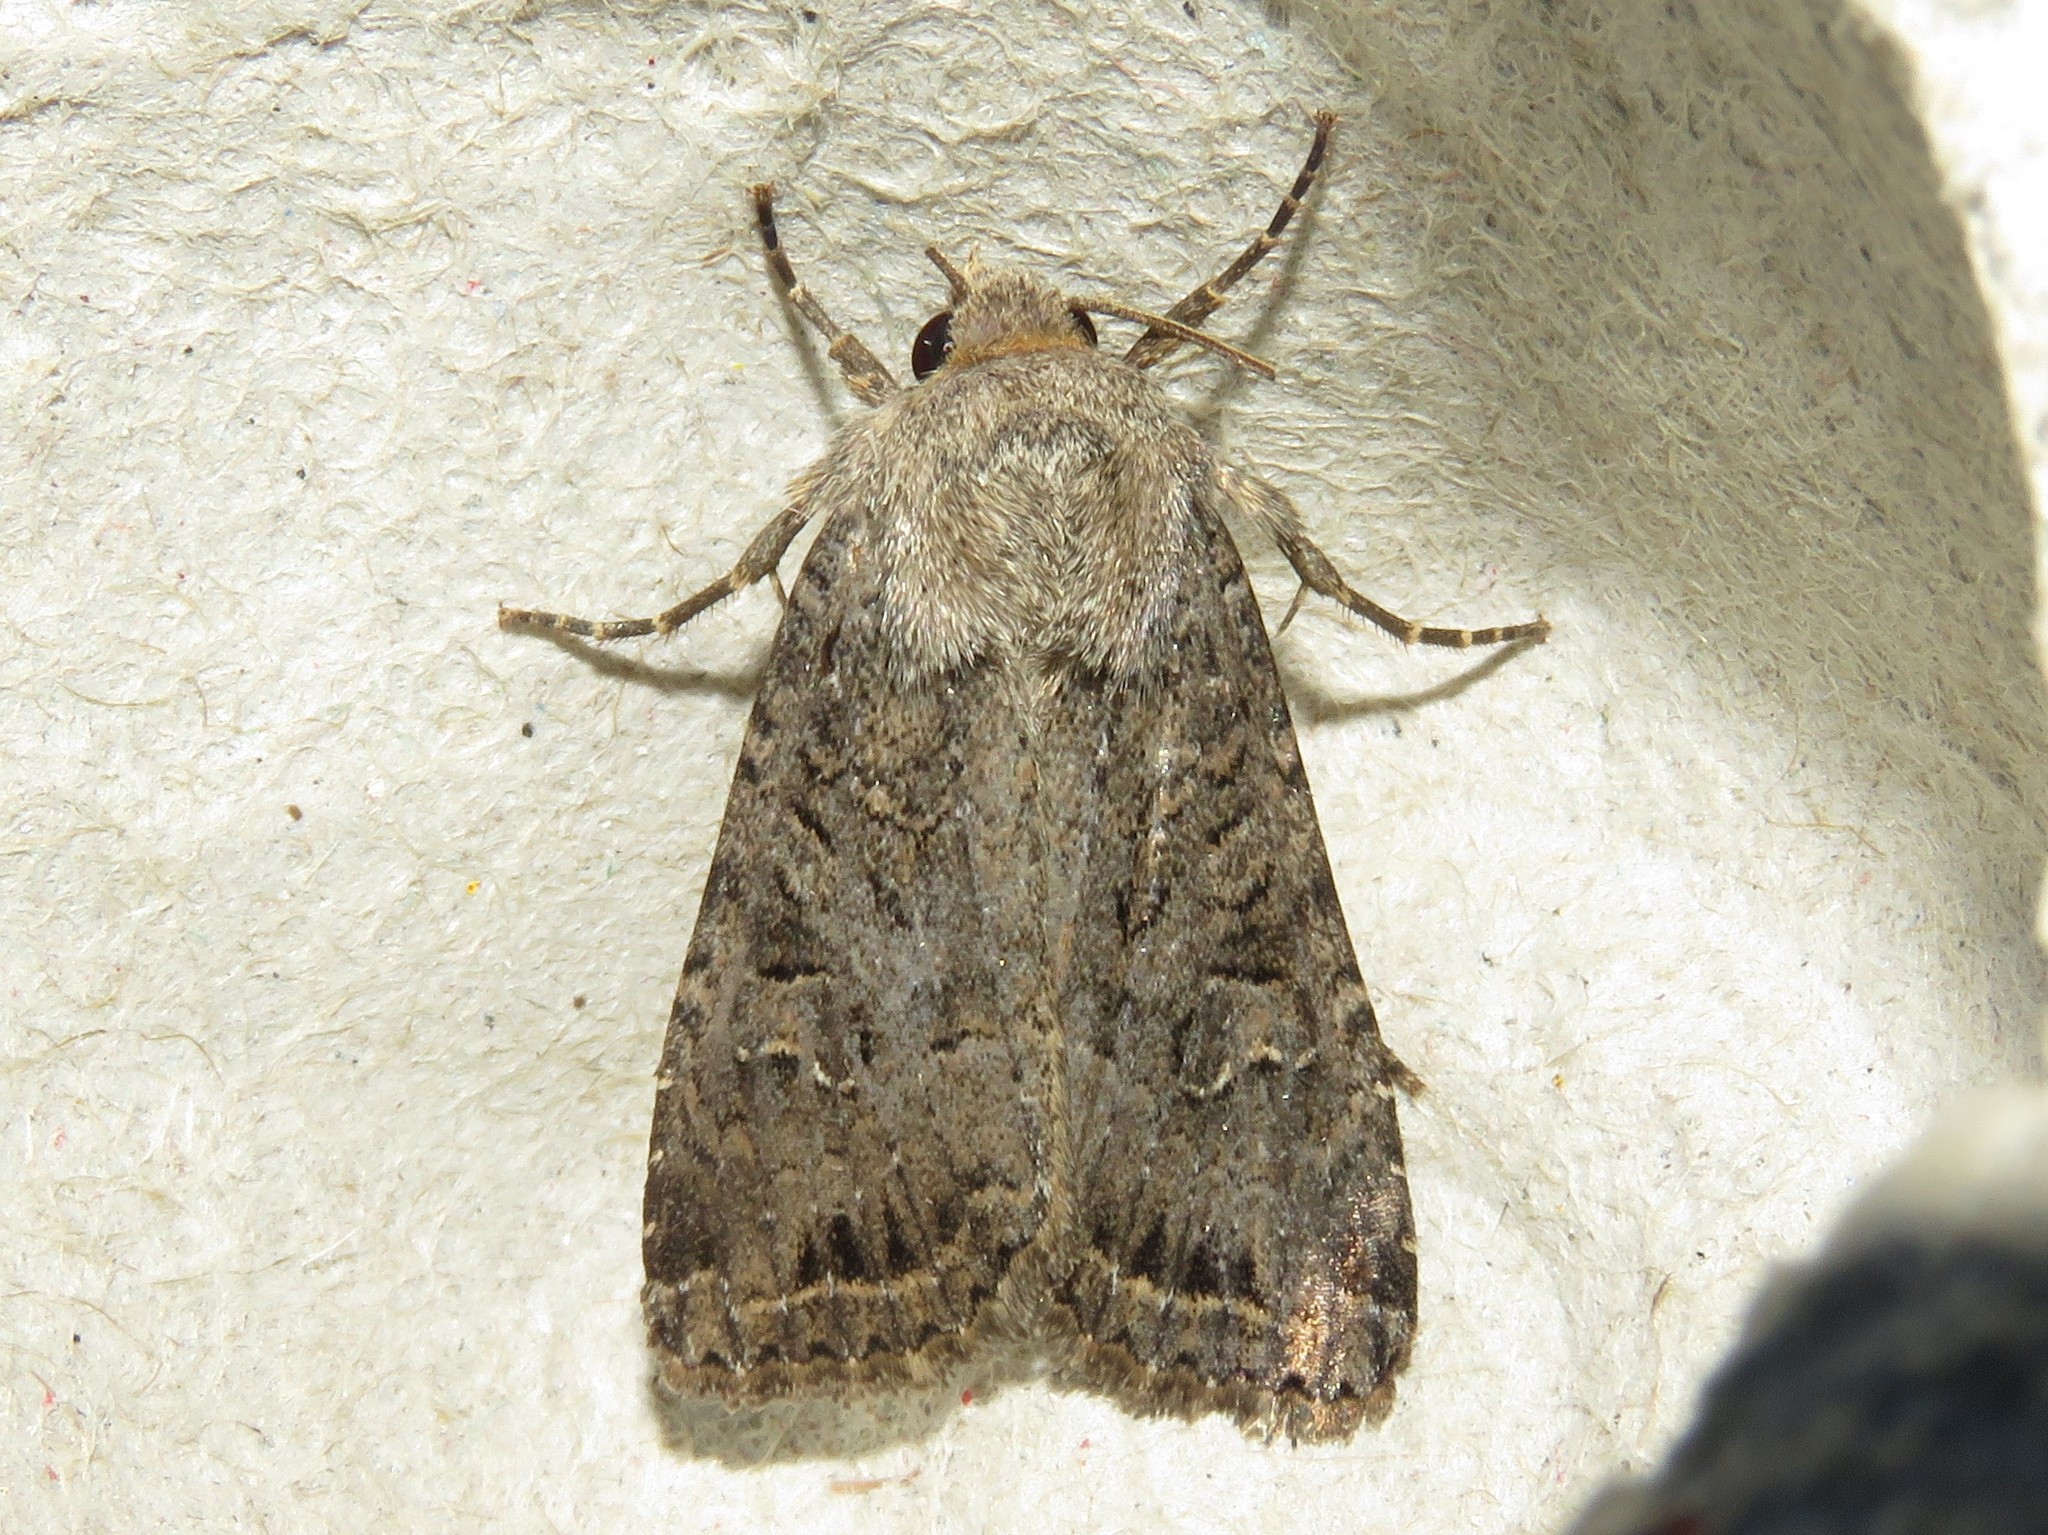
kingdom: Animalia
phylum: Arthropoda
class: Insecta
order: Lepidoptera
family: Noctuidae
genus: Apamea
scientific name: Apamea devastator
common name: Glassy cutworm
